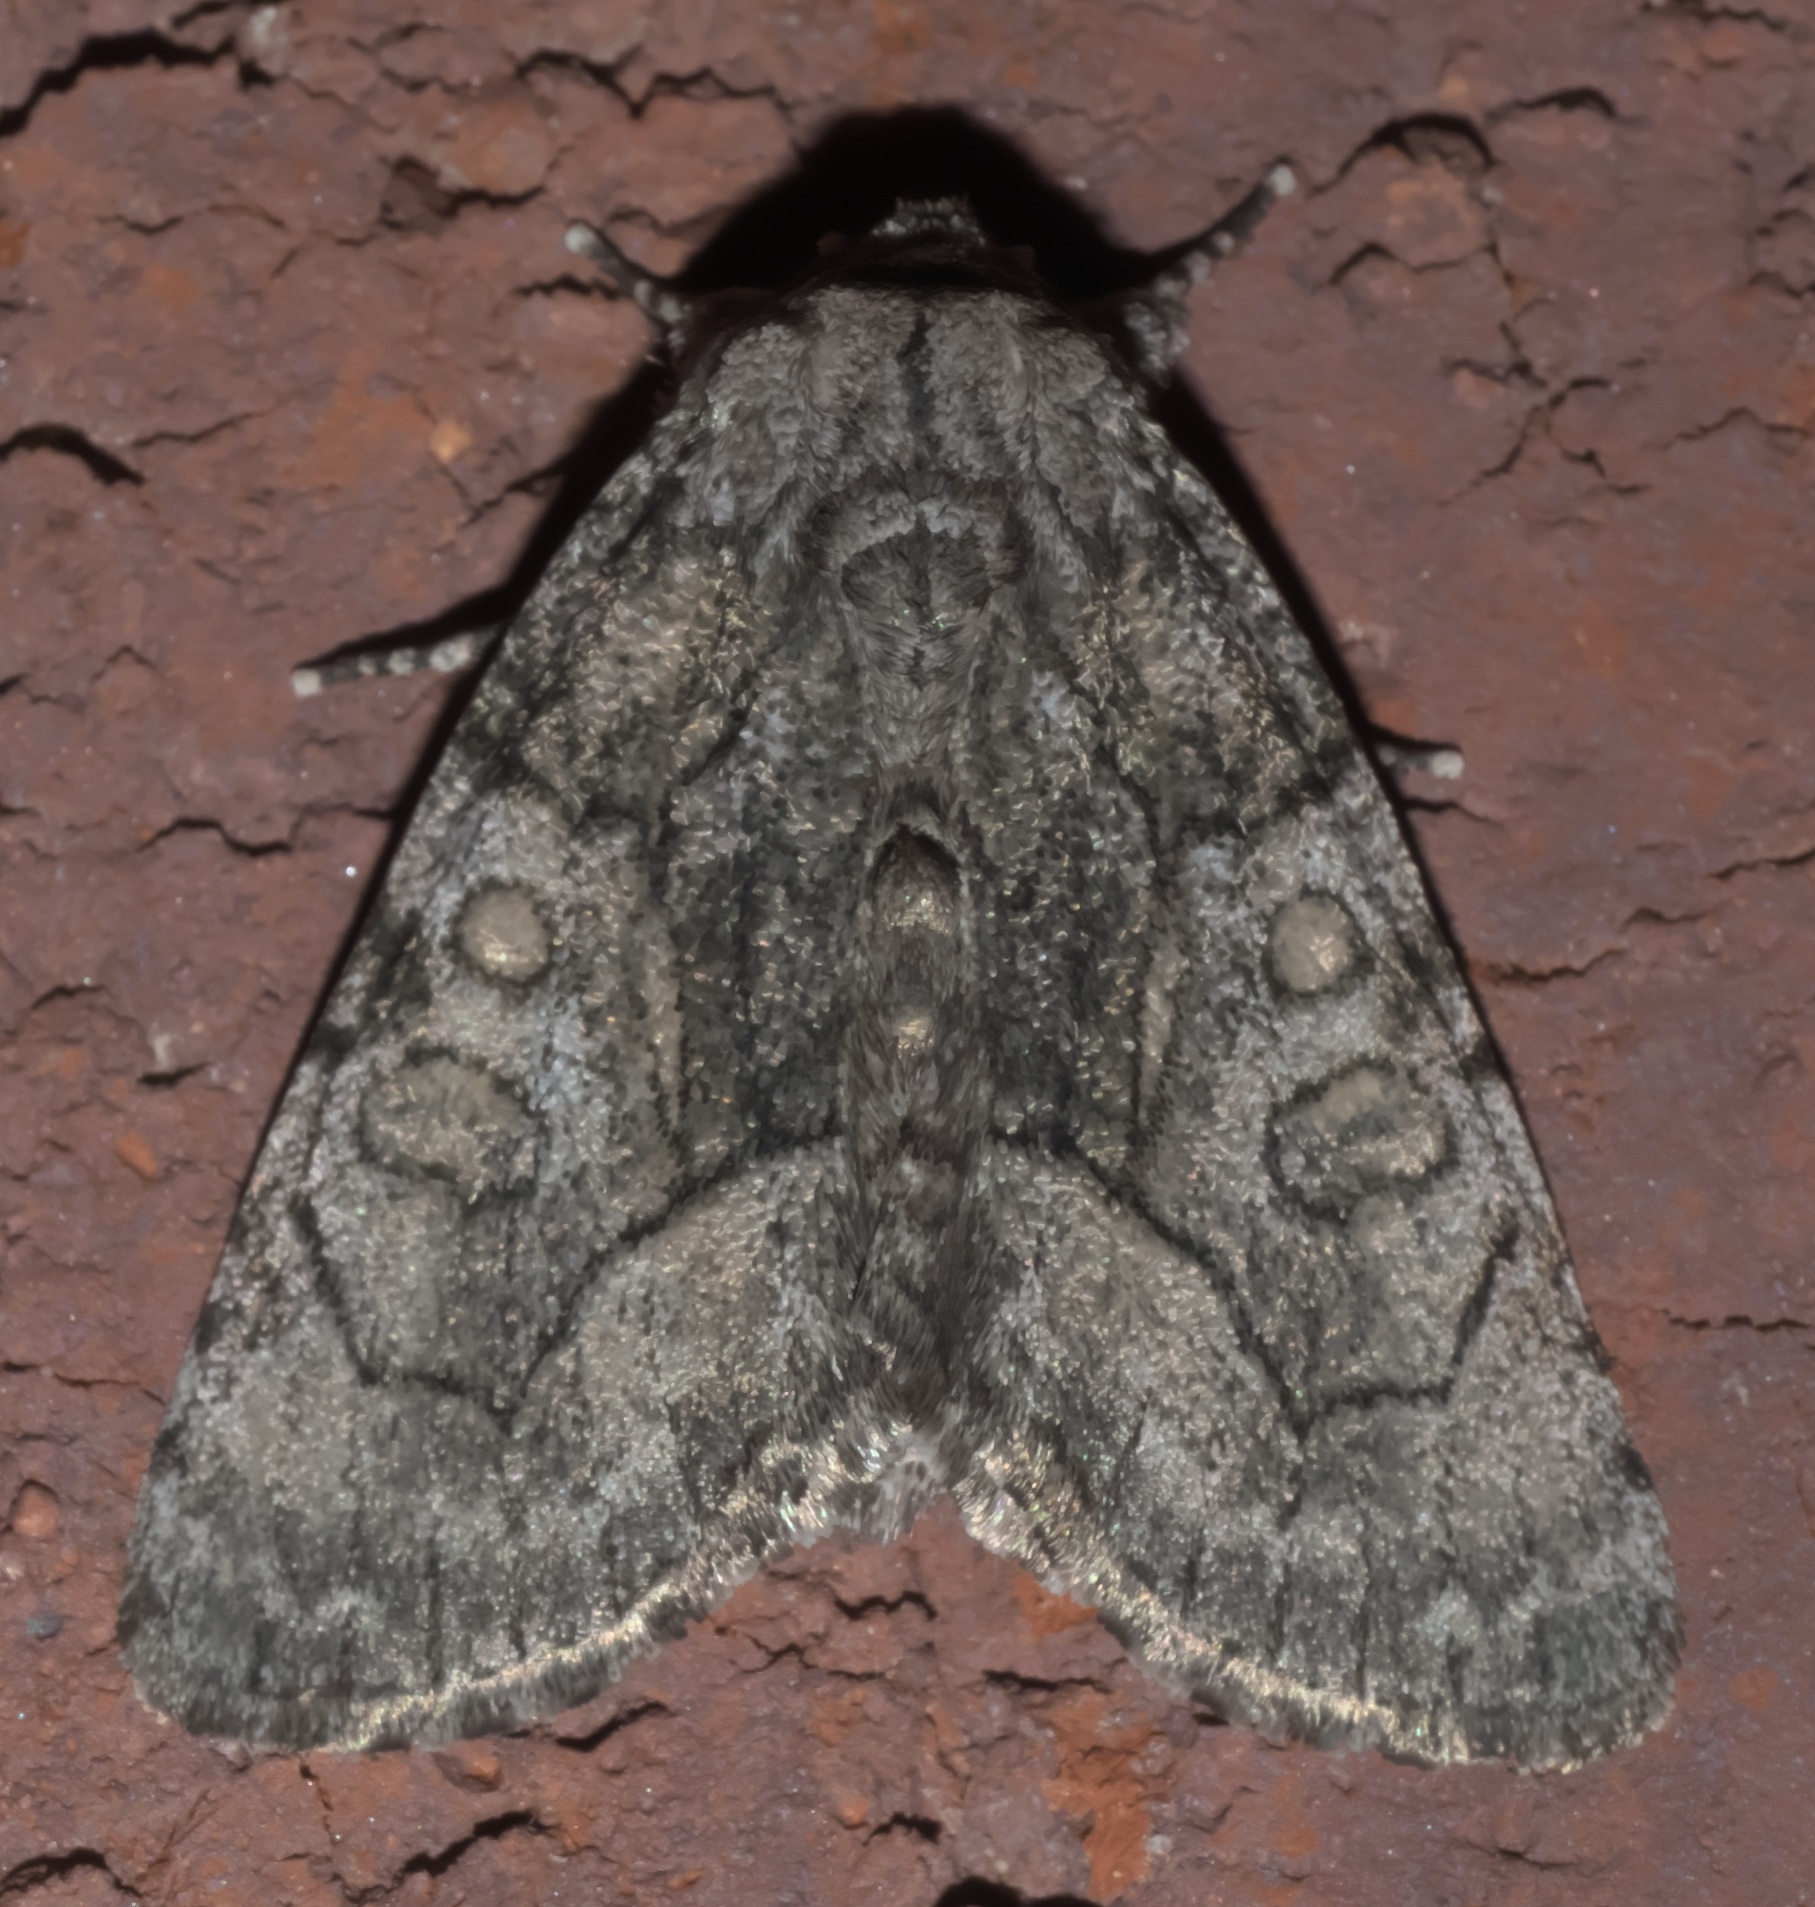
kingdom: Animalia
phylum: Arthropoda
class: Insecta
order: Lepidoptera
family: Noctuidae
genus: Raphia
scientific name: Raphia frater
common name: Brother
